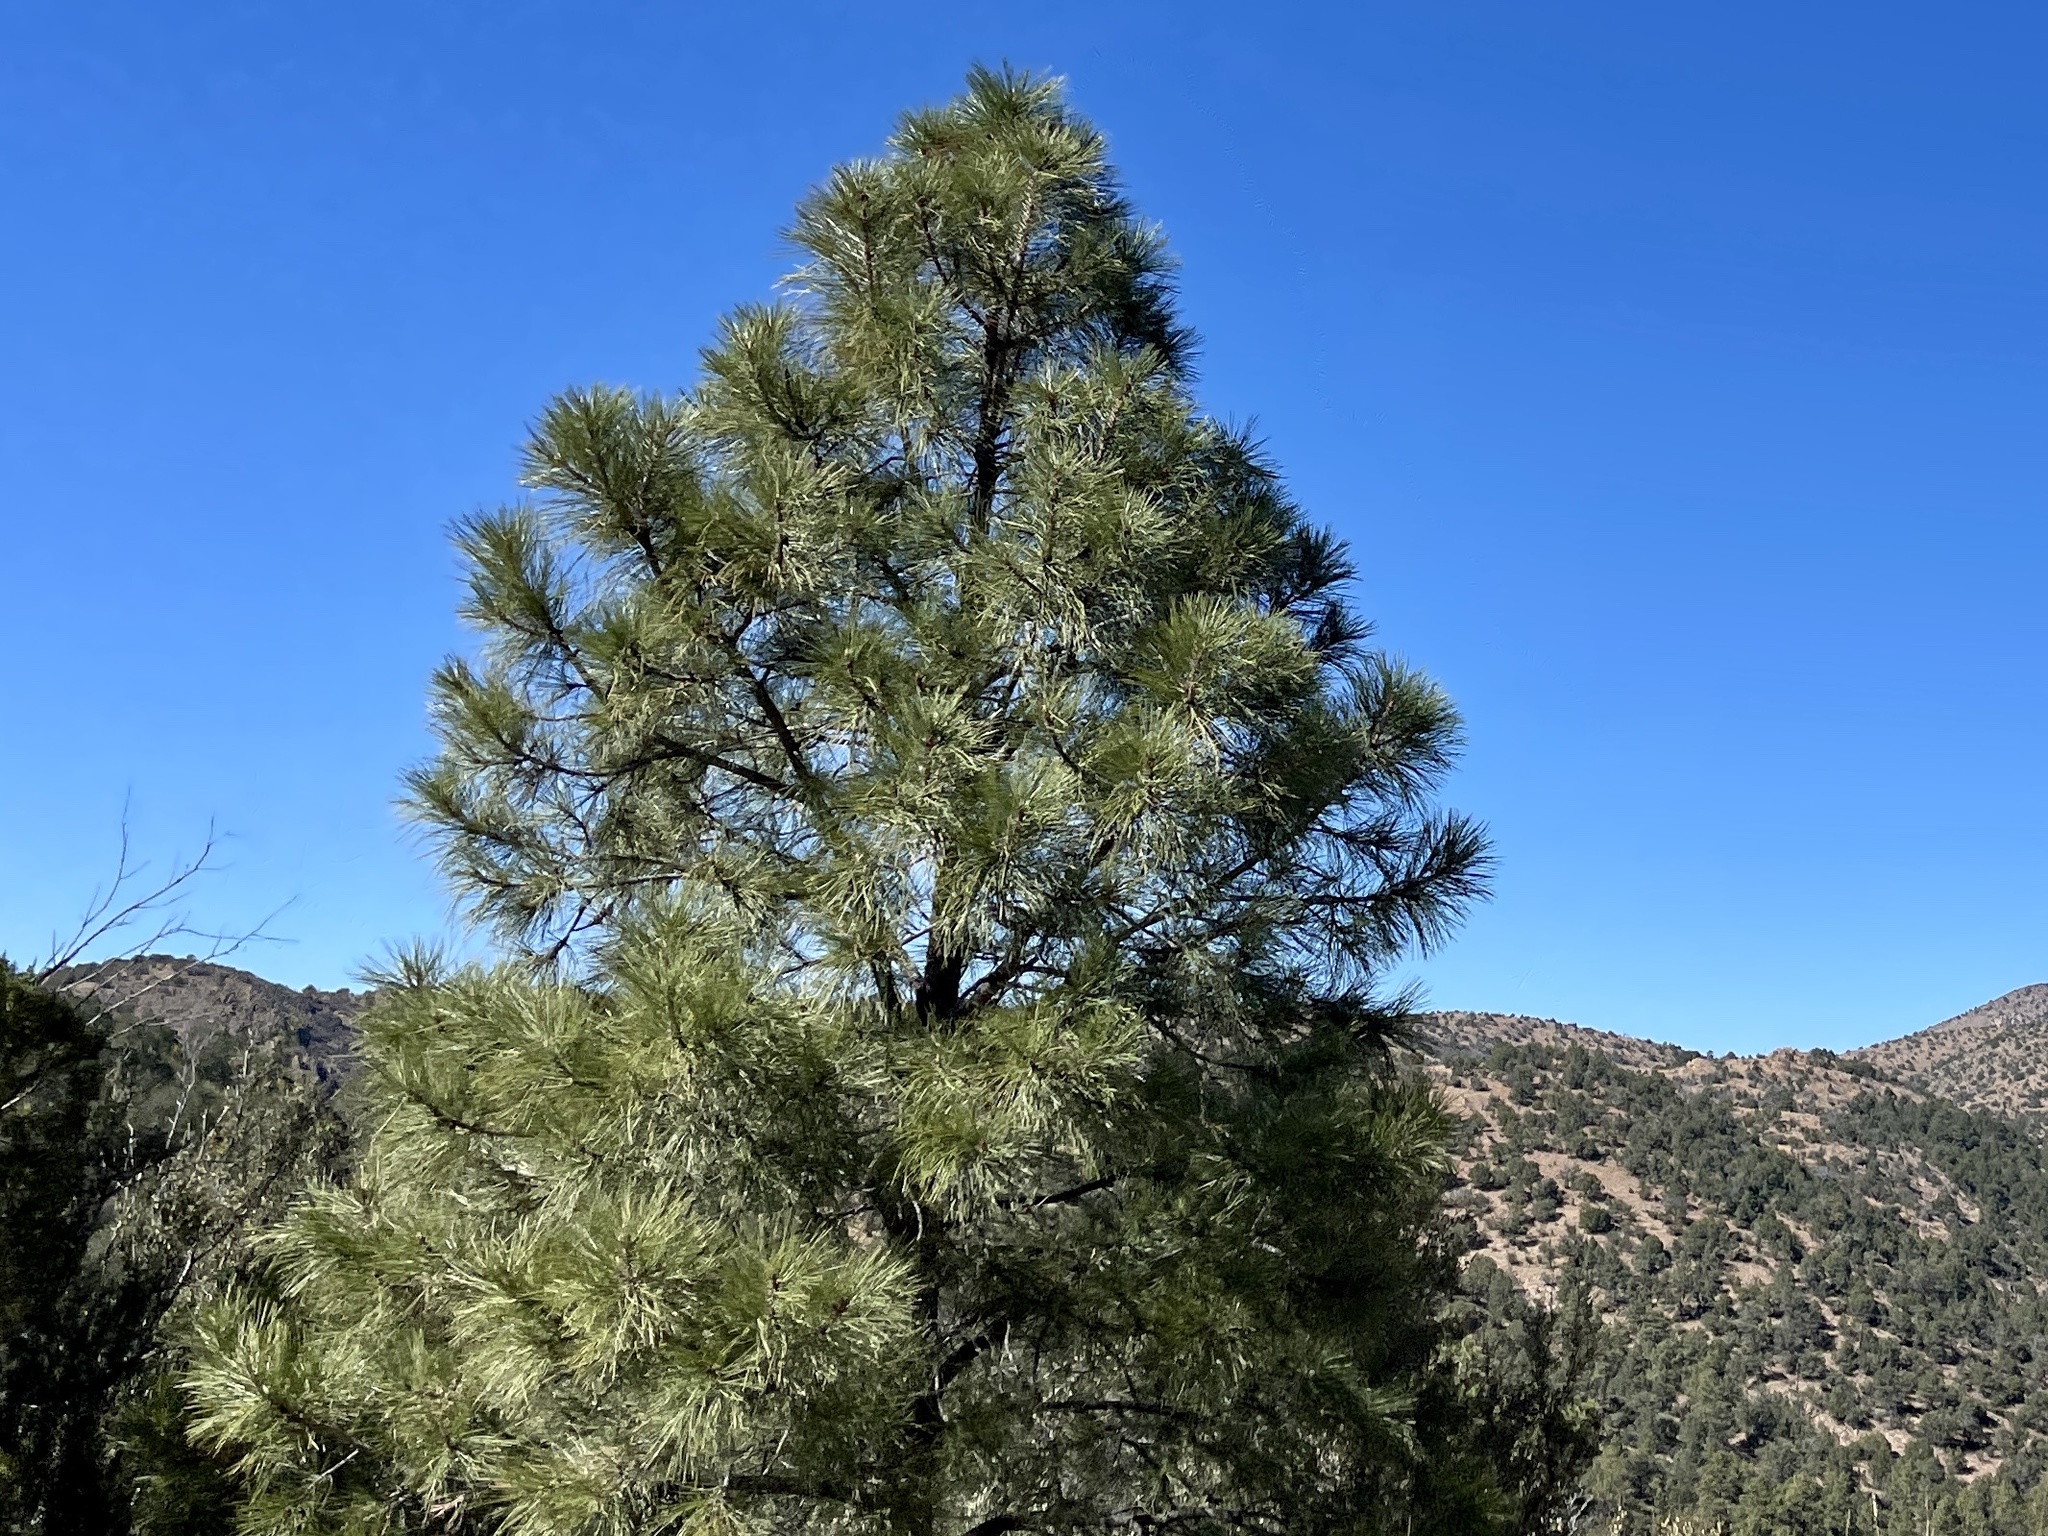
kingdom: Plantae
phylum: Tracheophyta
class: Pinopsida
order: Pinales
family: Pinaceae
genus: Pinus
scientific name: Pinus ponderosa
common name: Western yellow-pine
